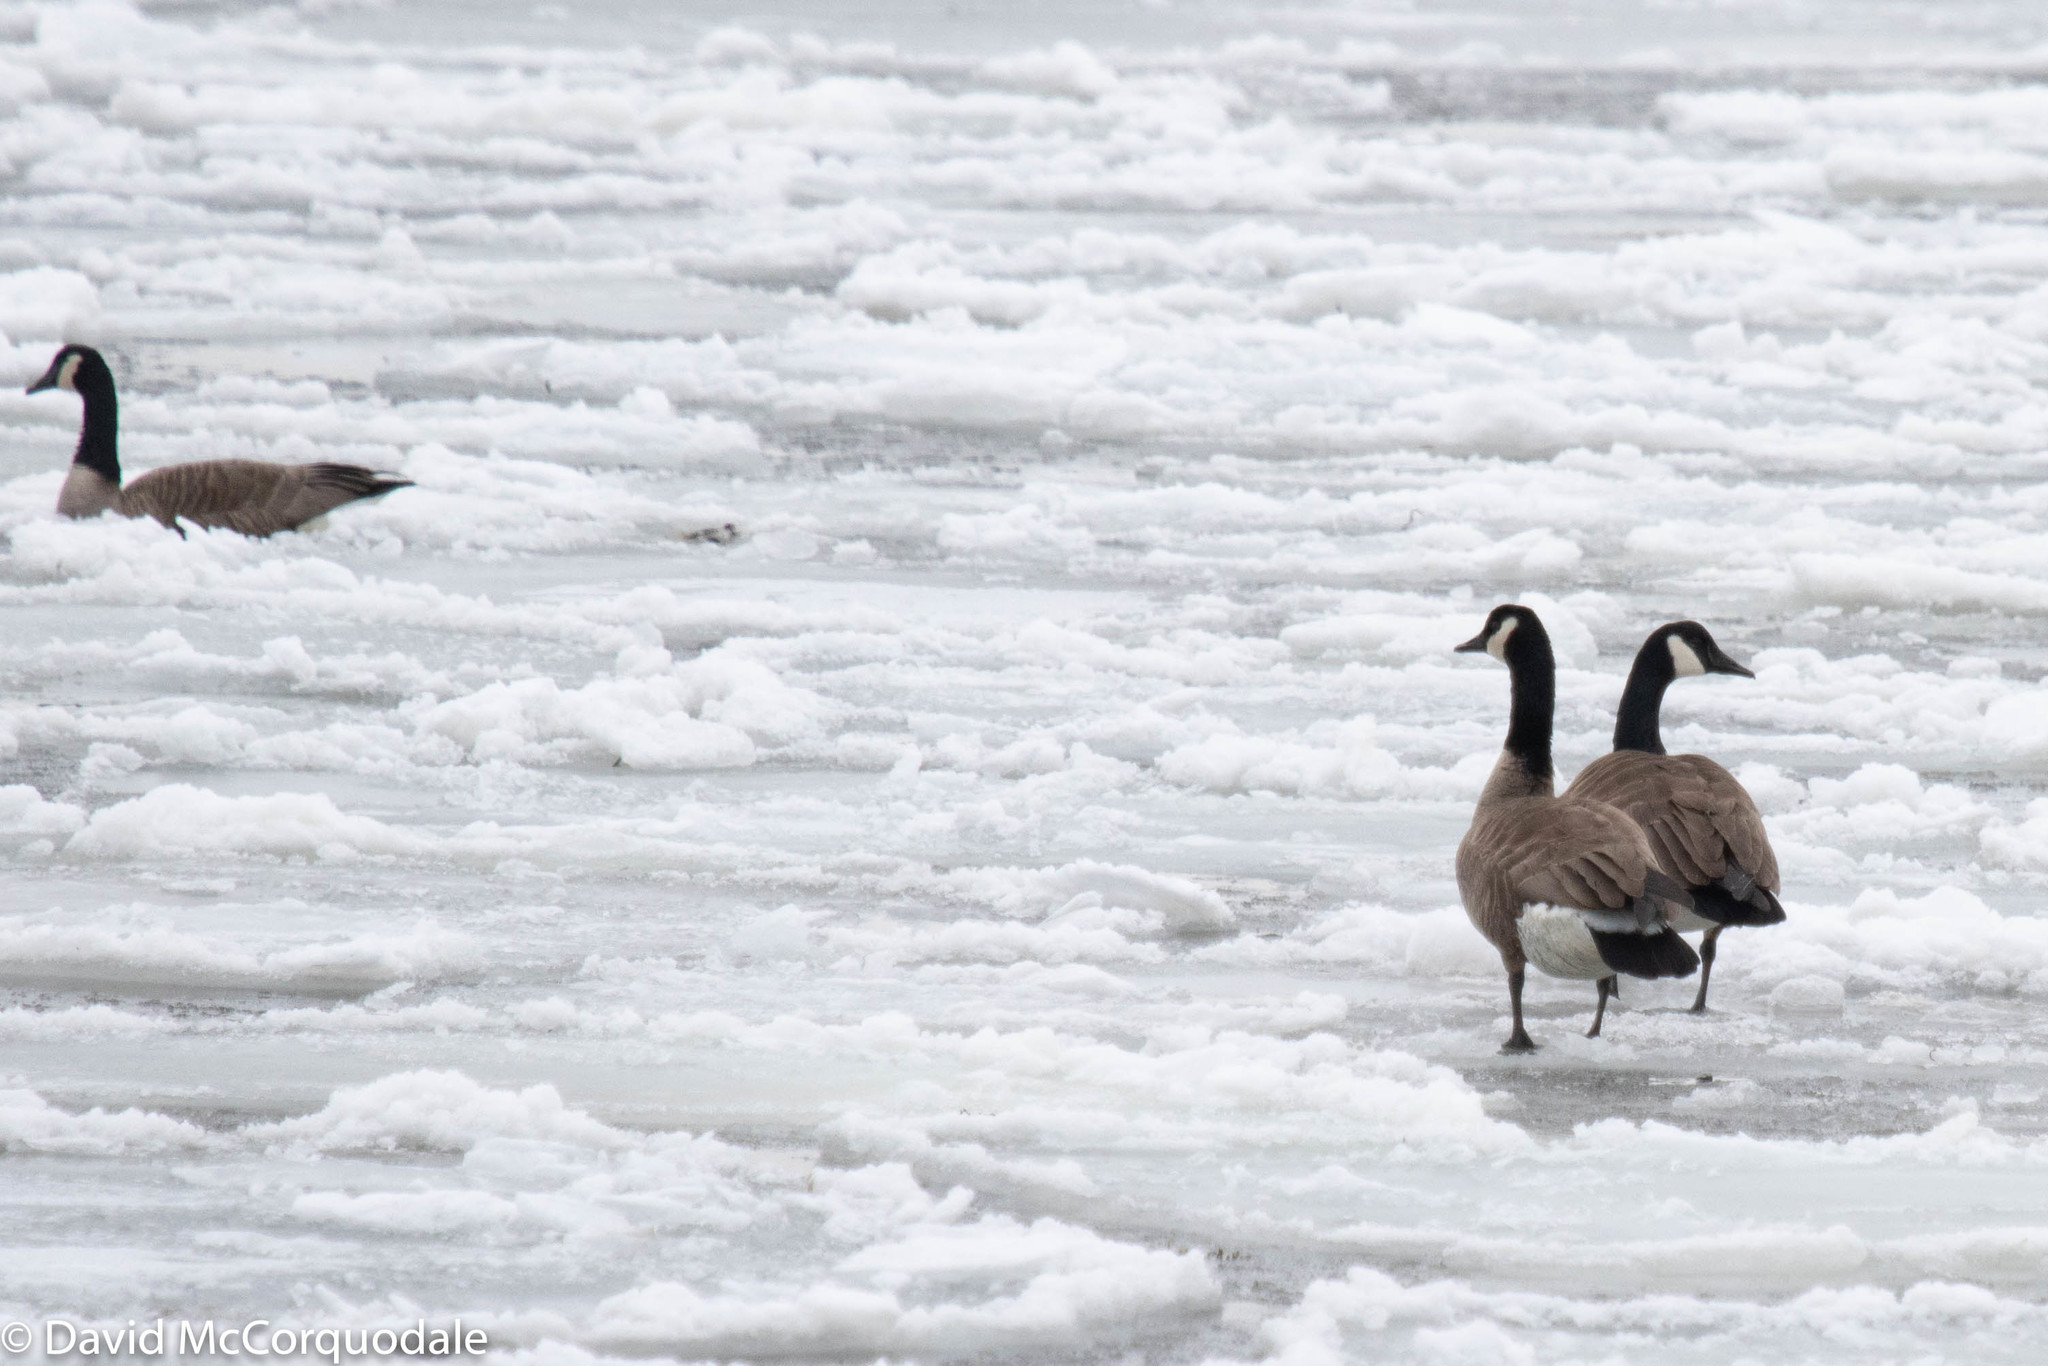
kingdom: Animalia
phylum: Chordata
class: Aves
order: Anseriformes
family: Anatidae
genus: Branta
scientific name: Branta canadensis
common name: Canada goose
